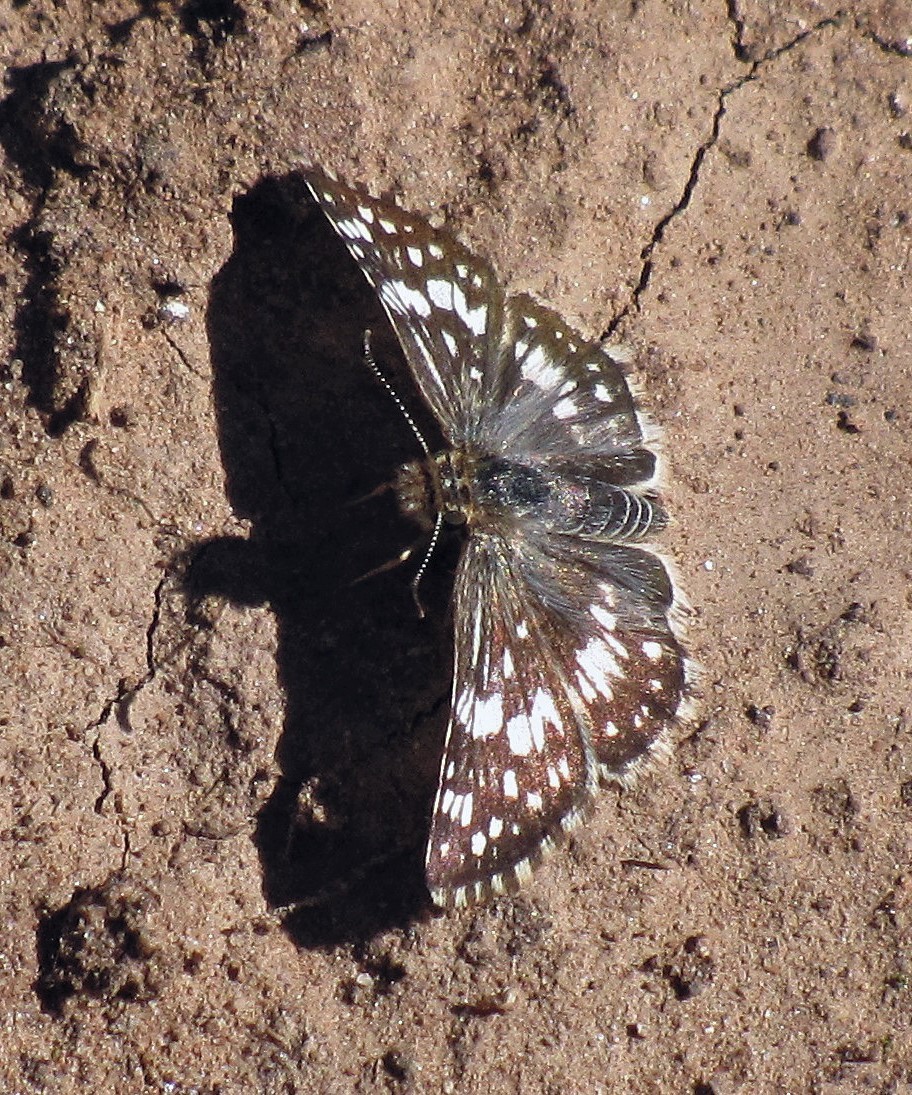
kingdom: Animalia
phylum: Arthropoda
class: Insecta
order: Lepidoptera
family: Hesperiidae
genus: Burnsius
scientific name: Burnsius orcynoides
